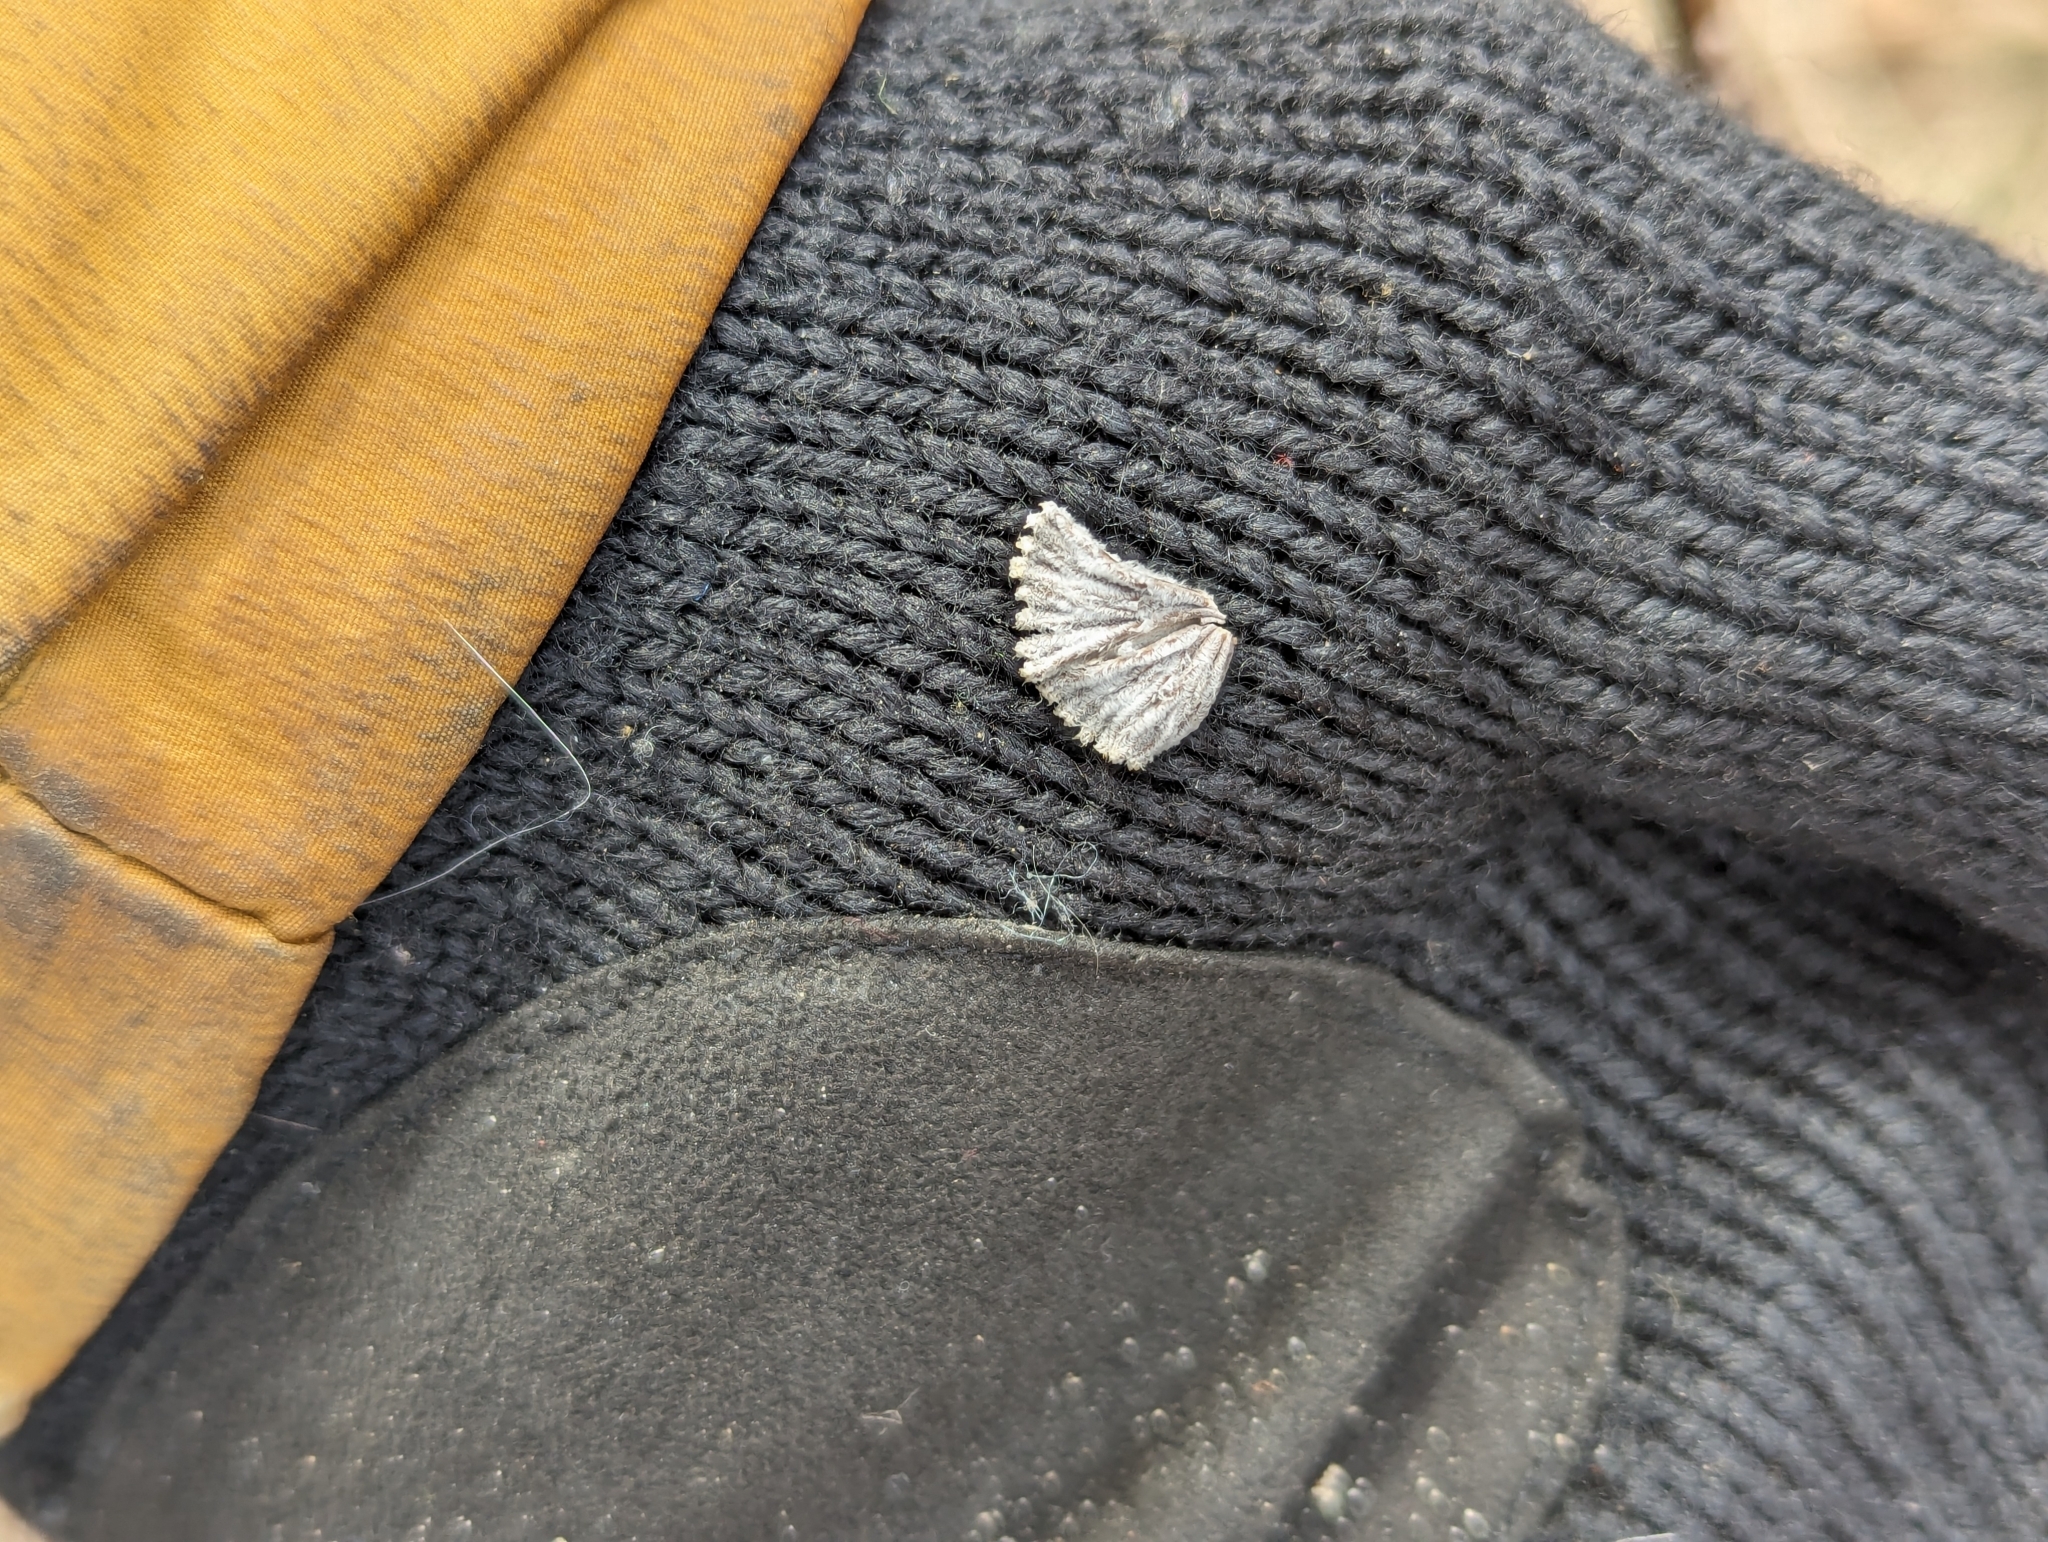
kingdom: Fungi
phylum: Basidiomycota
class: Agaricomycetes
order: Agaricales
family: Schizophyllaceae
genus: Schizophyllum
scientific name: Schizophyllum commune
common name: Common porecrust
